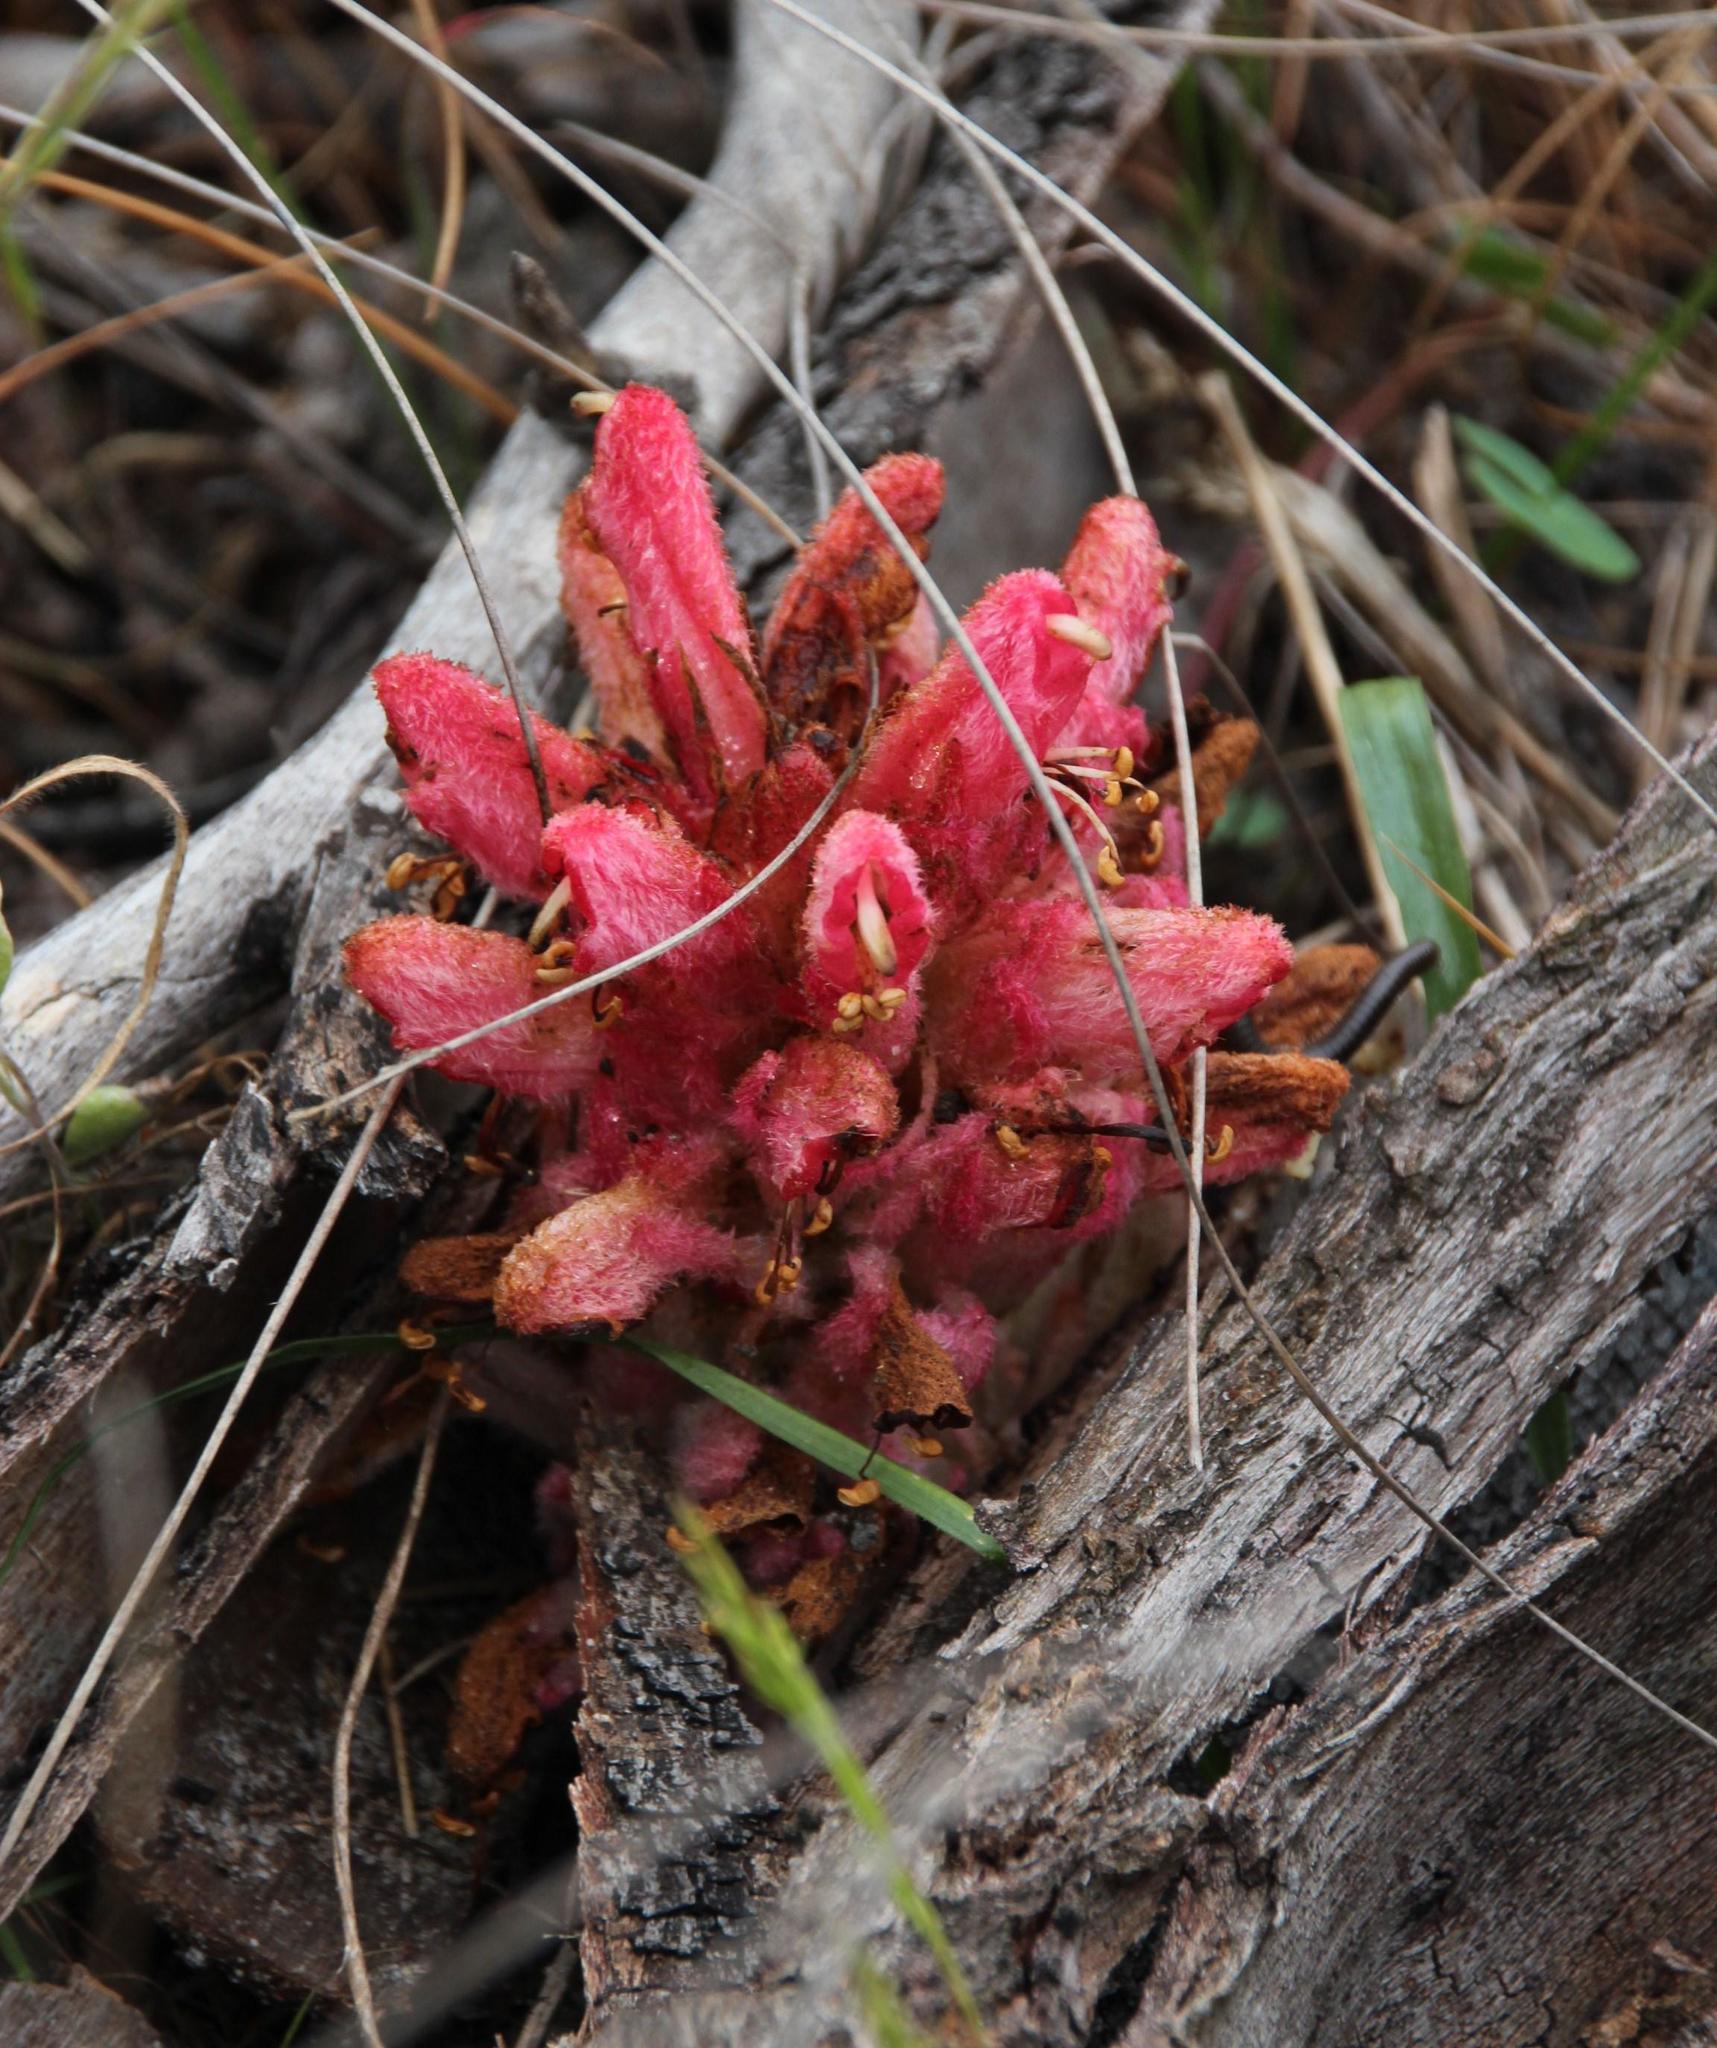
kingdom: Plantae
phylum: Tracheophyta
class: Magnoliopsida
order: Lamiales
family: Orobanchaceae
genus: Hyobanche
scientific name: Hyobanche sanguinea
